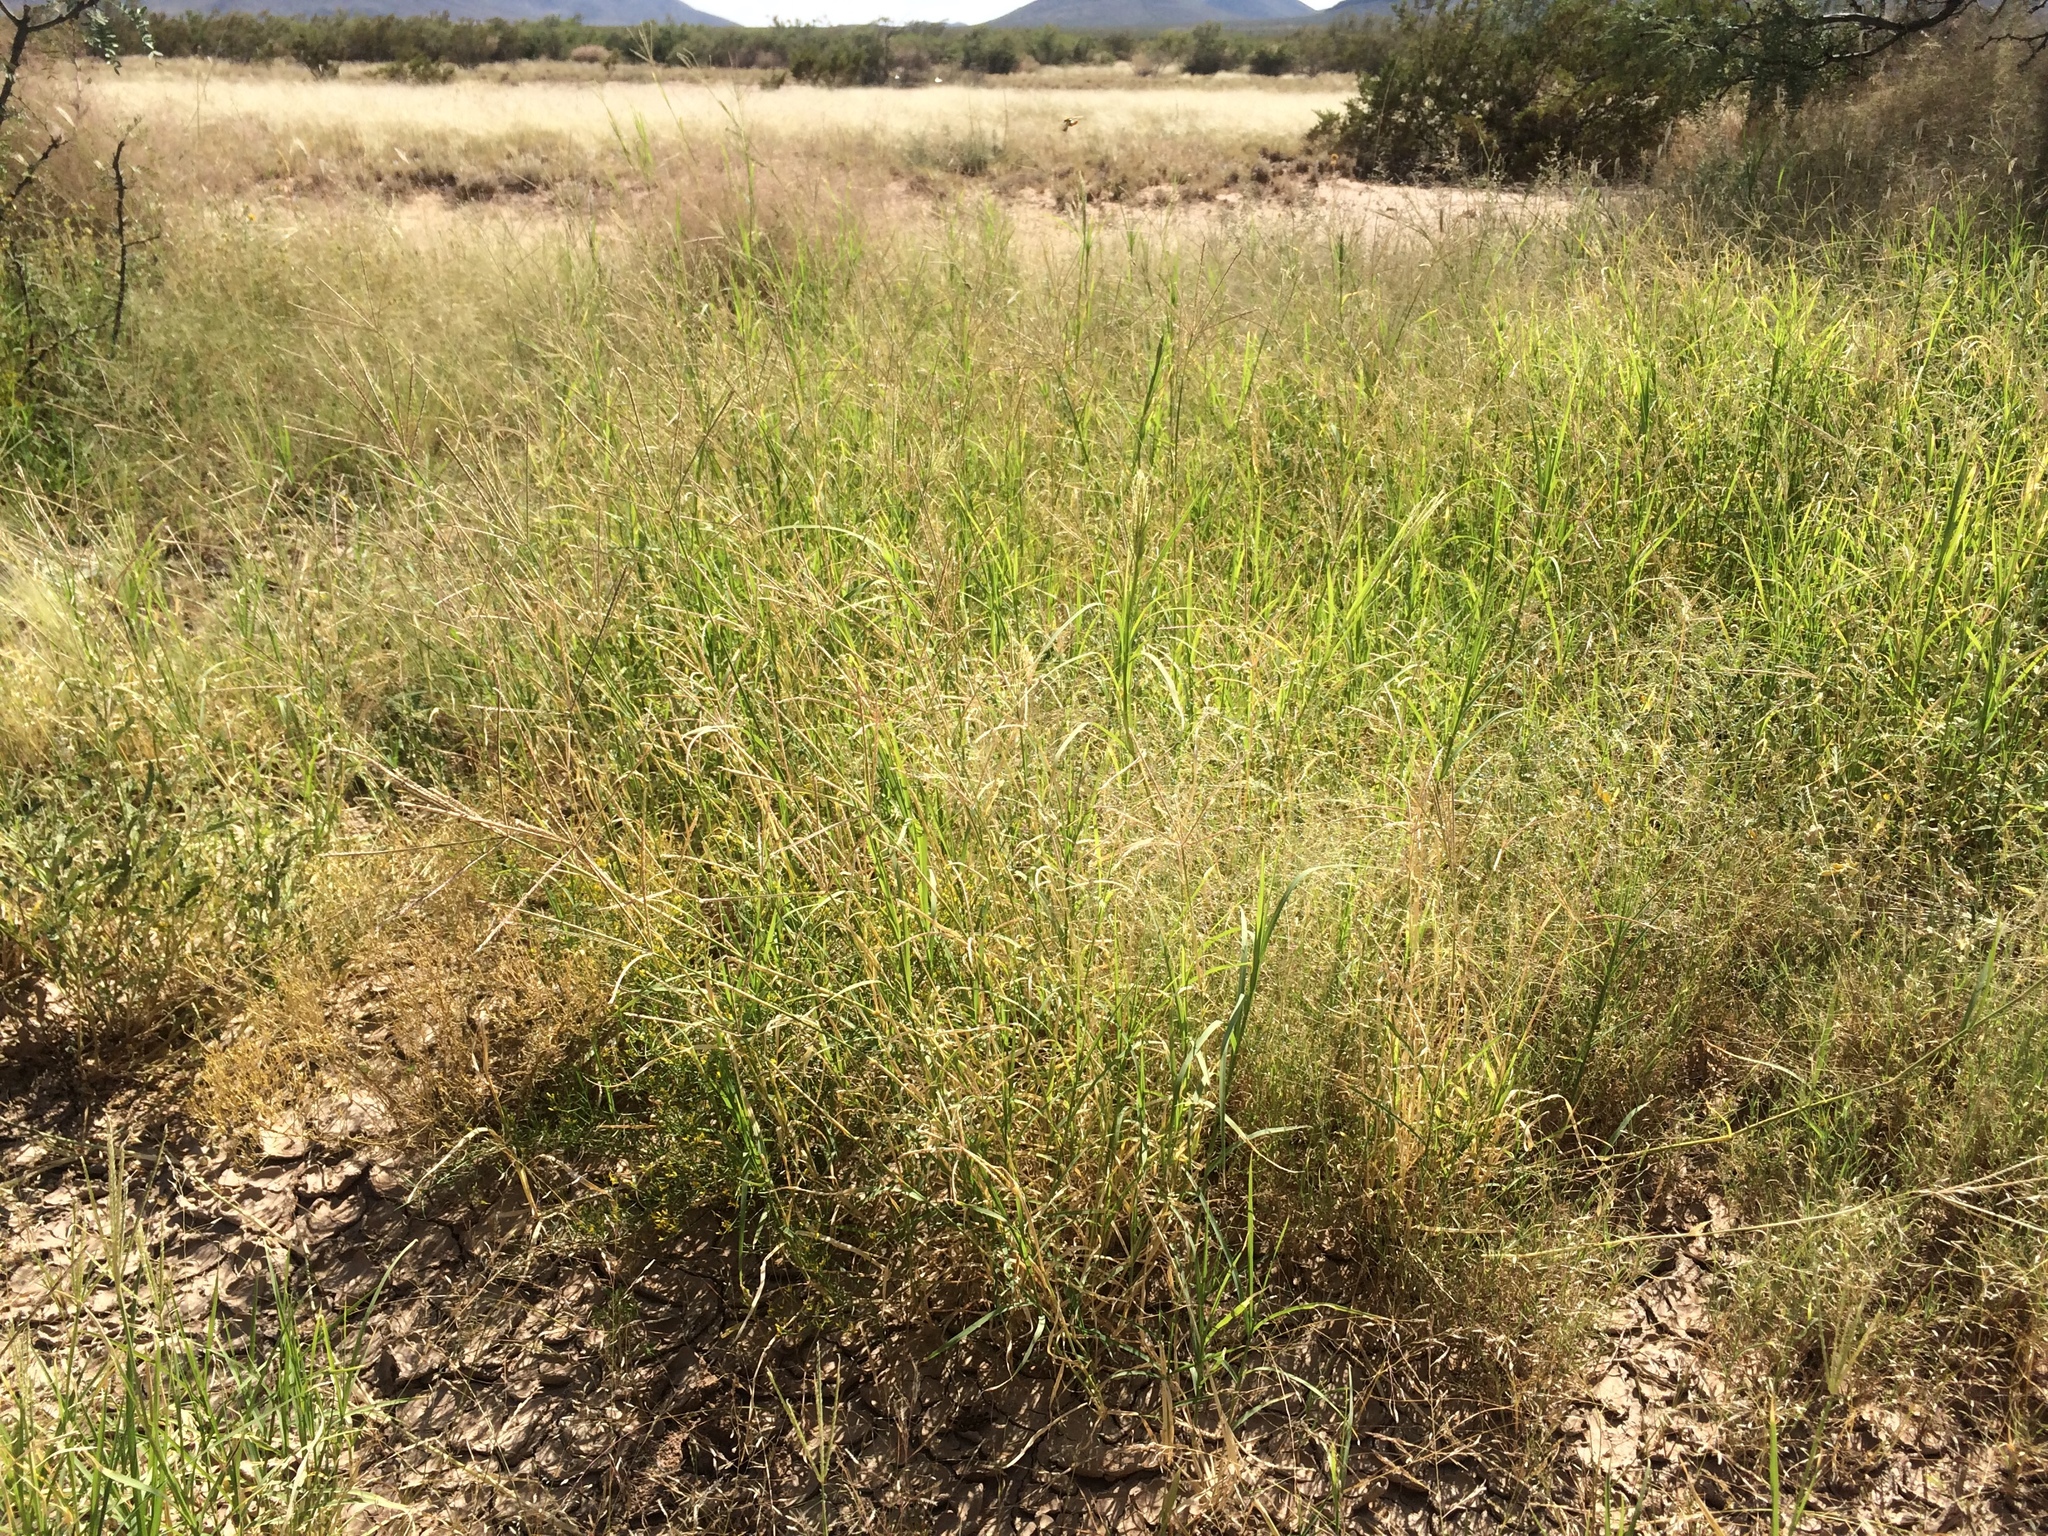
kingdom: Plantae
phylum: Tracheophyta
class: Liliopsida
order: Poales
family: Poaceae
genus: Cynodon
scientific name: Cynodon dactylon
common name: Bermuda grass
